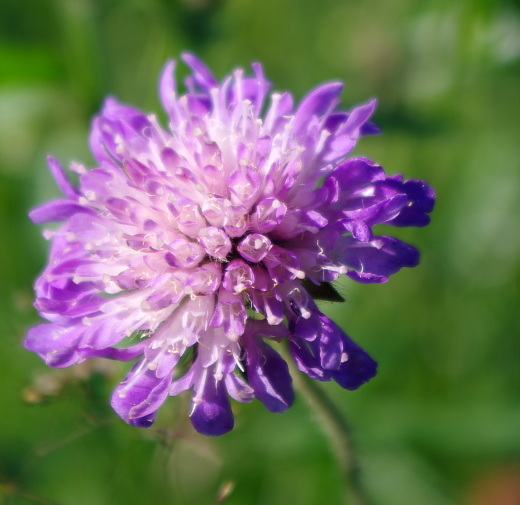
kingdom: Plantae
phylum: Tracheophyta
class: Magnoliopsida
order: Dipsacales
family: Caprifoliaceae
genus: Knautia
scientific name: Knautia arvensis
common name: Field scabiosa
